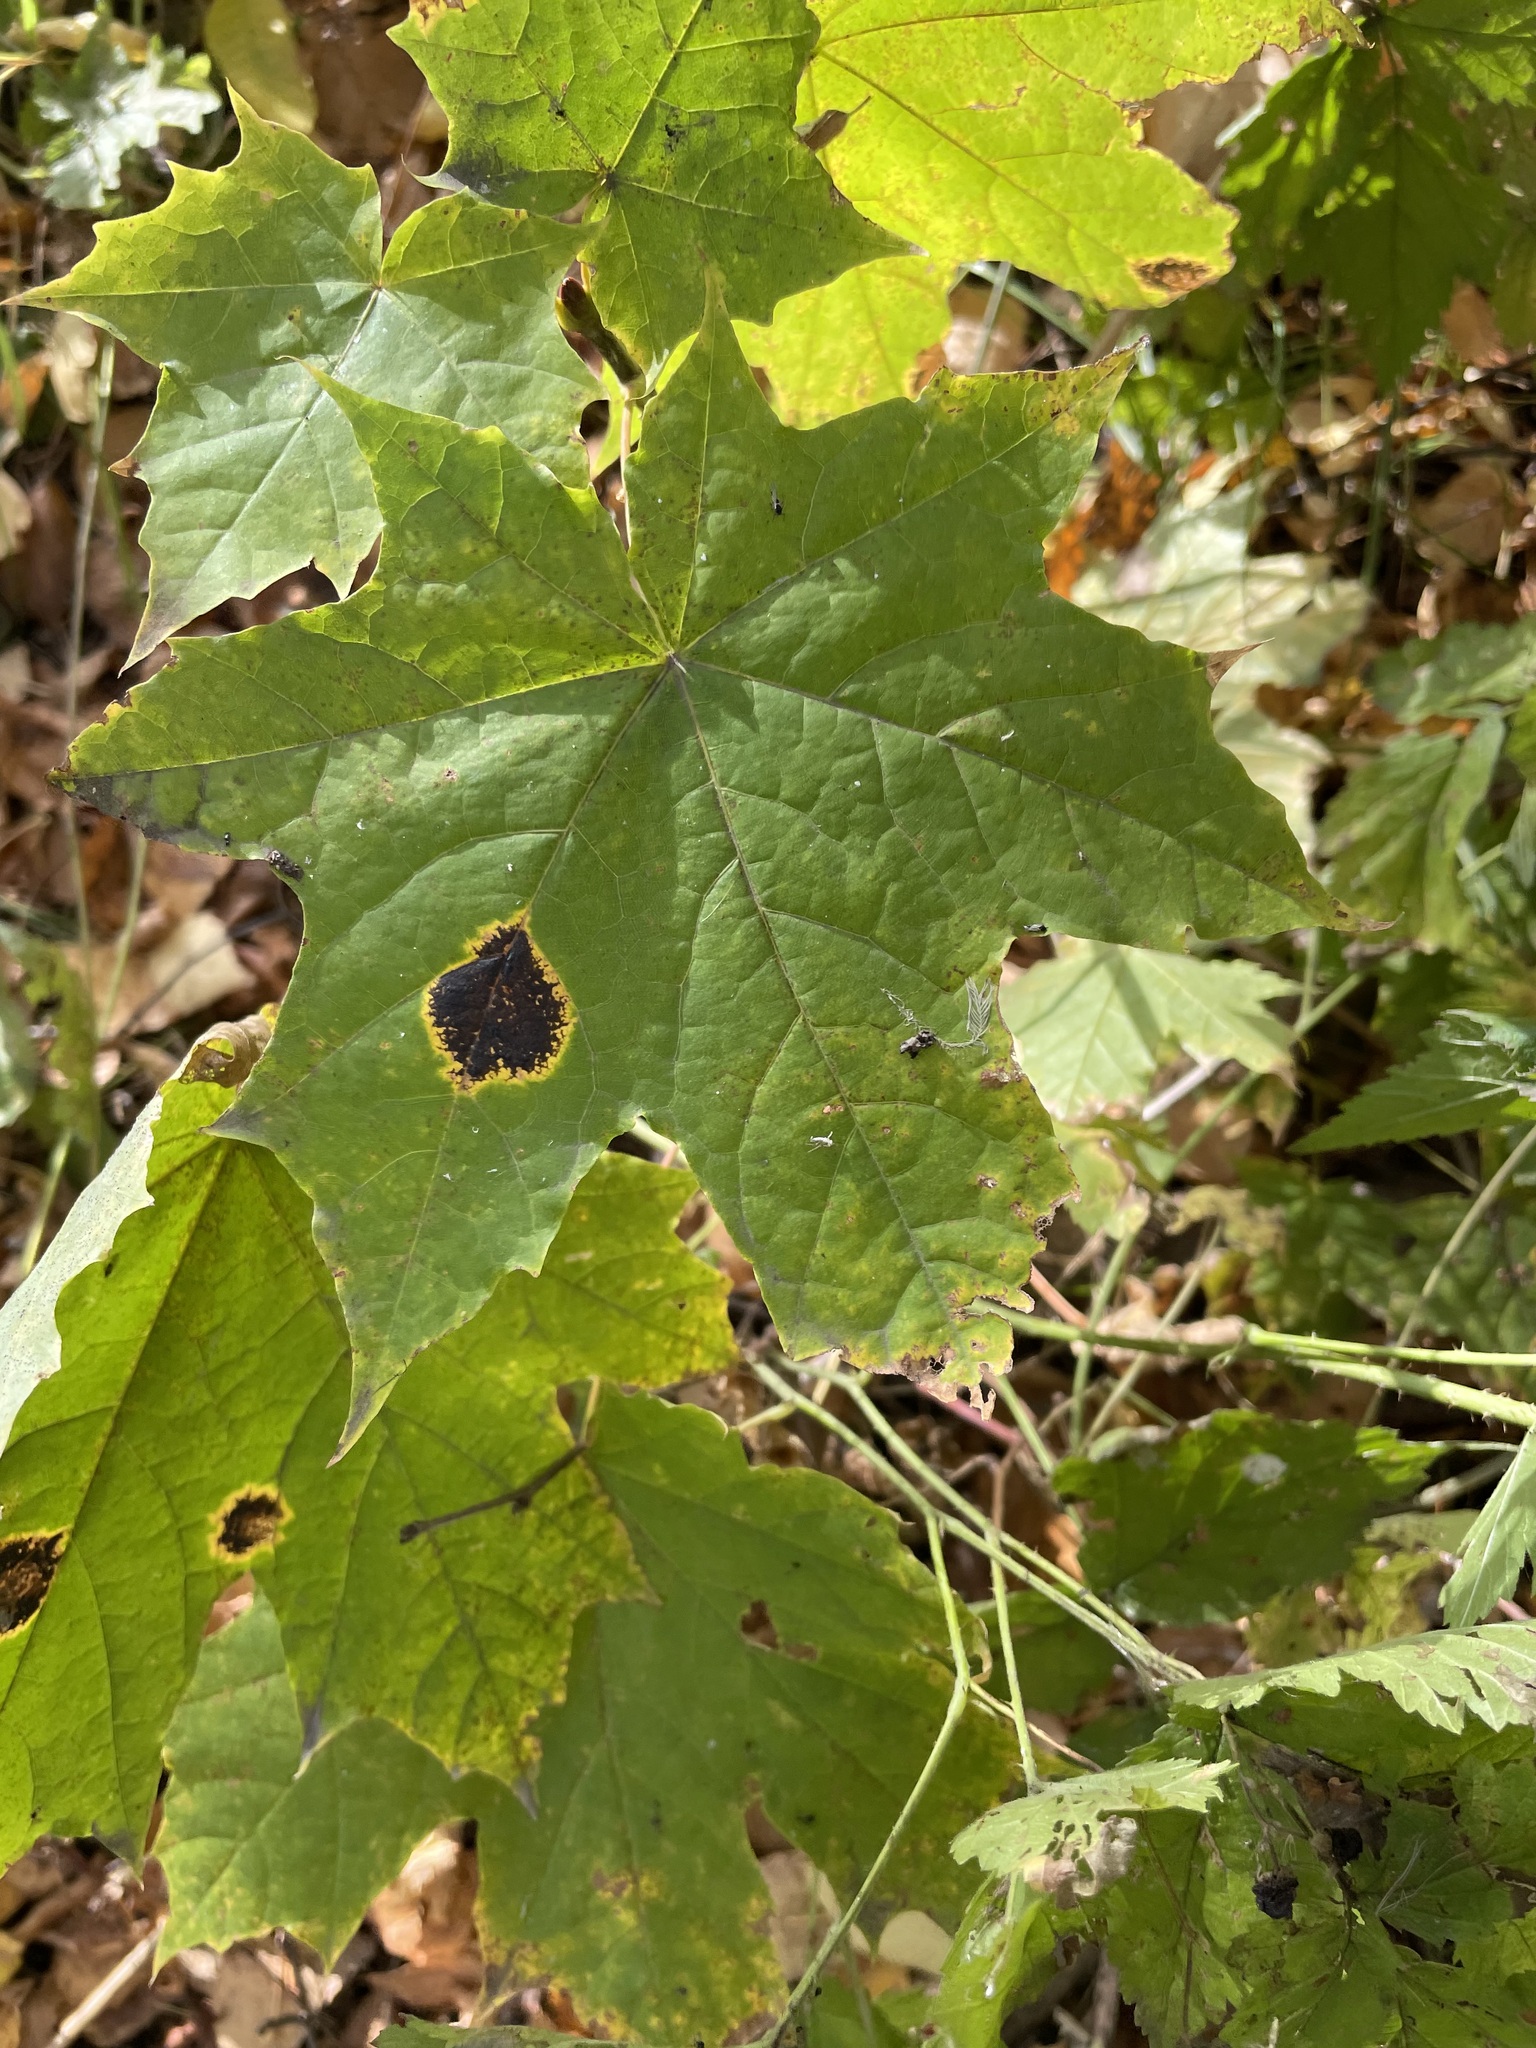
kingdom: Plantae
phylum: Tracheophyta
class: Magnoliopsida
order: Sapindales
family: Sapindaceae
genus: Acer
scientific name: Acer platanoides
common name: Norway maple
